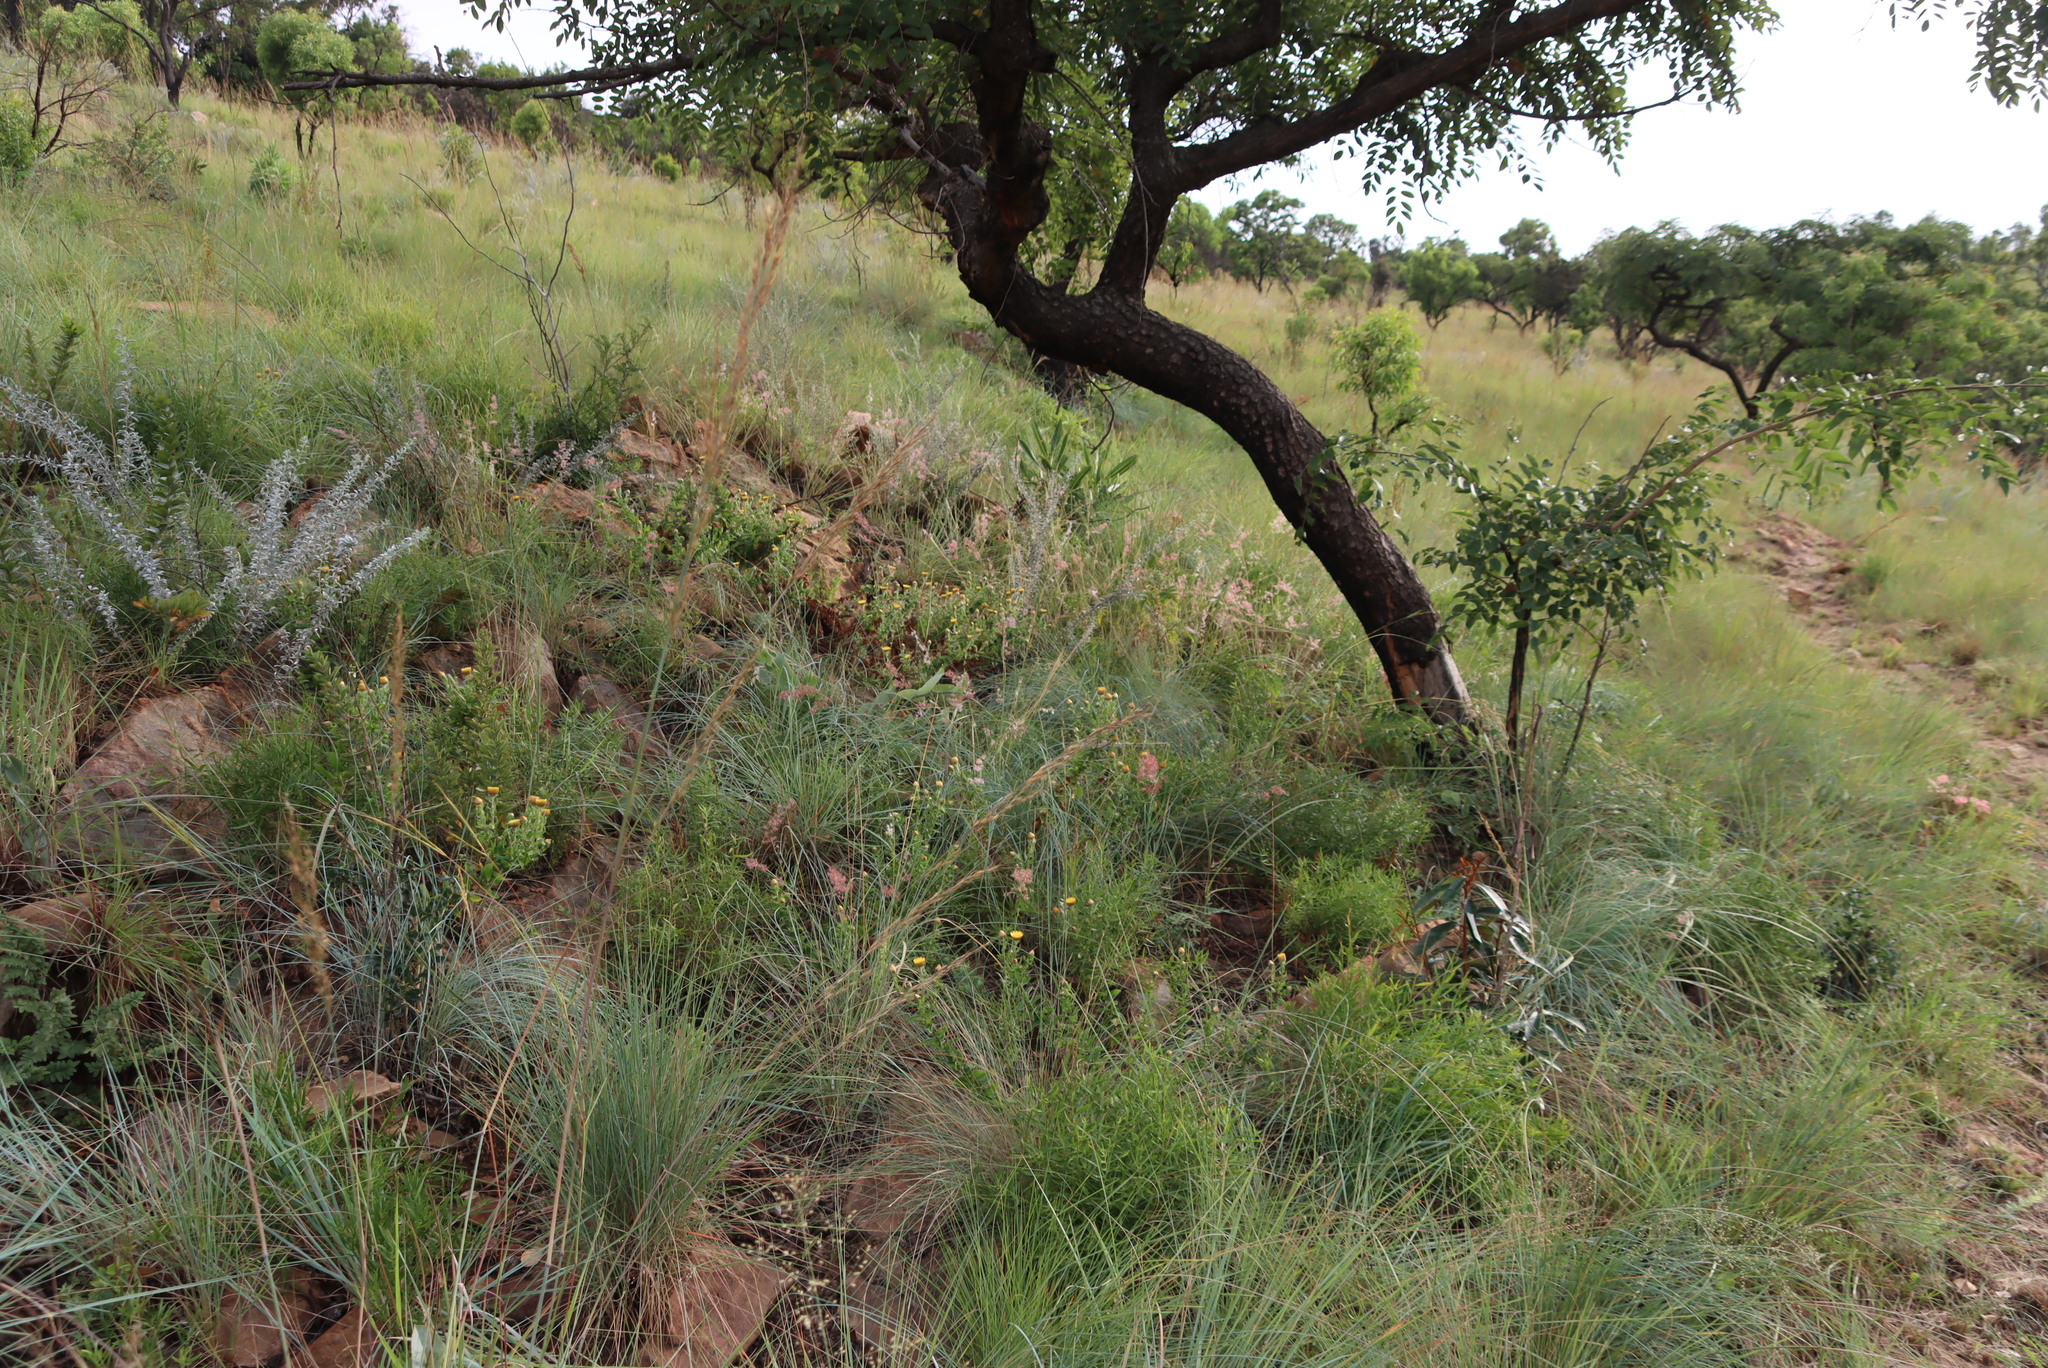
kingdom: Plantae
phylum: Tracheophyta
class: Liliopsida
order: Poales
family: Poaceae
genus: Melinis
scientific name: Melinis repens
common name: Rose natal grass
